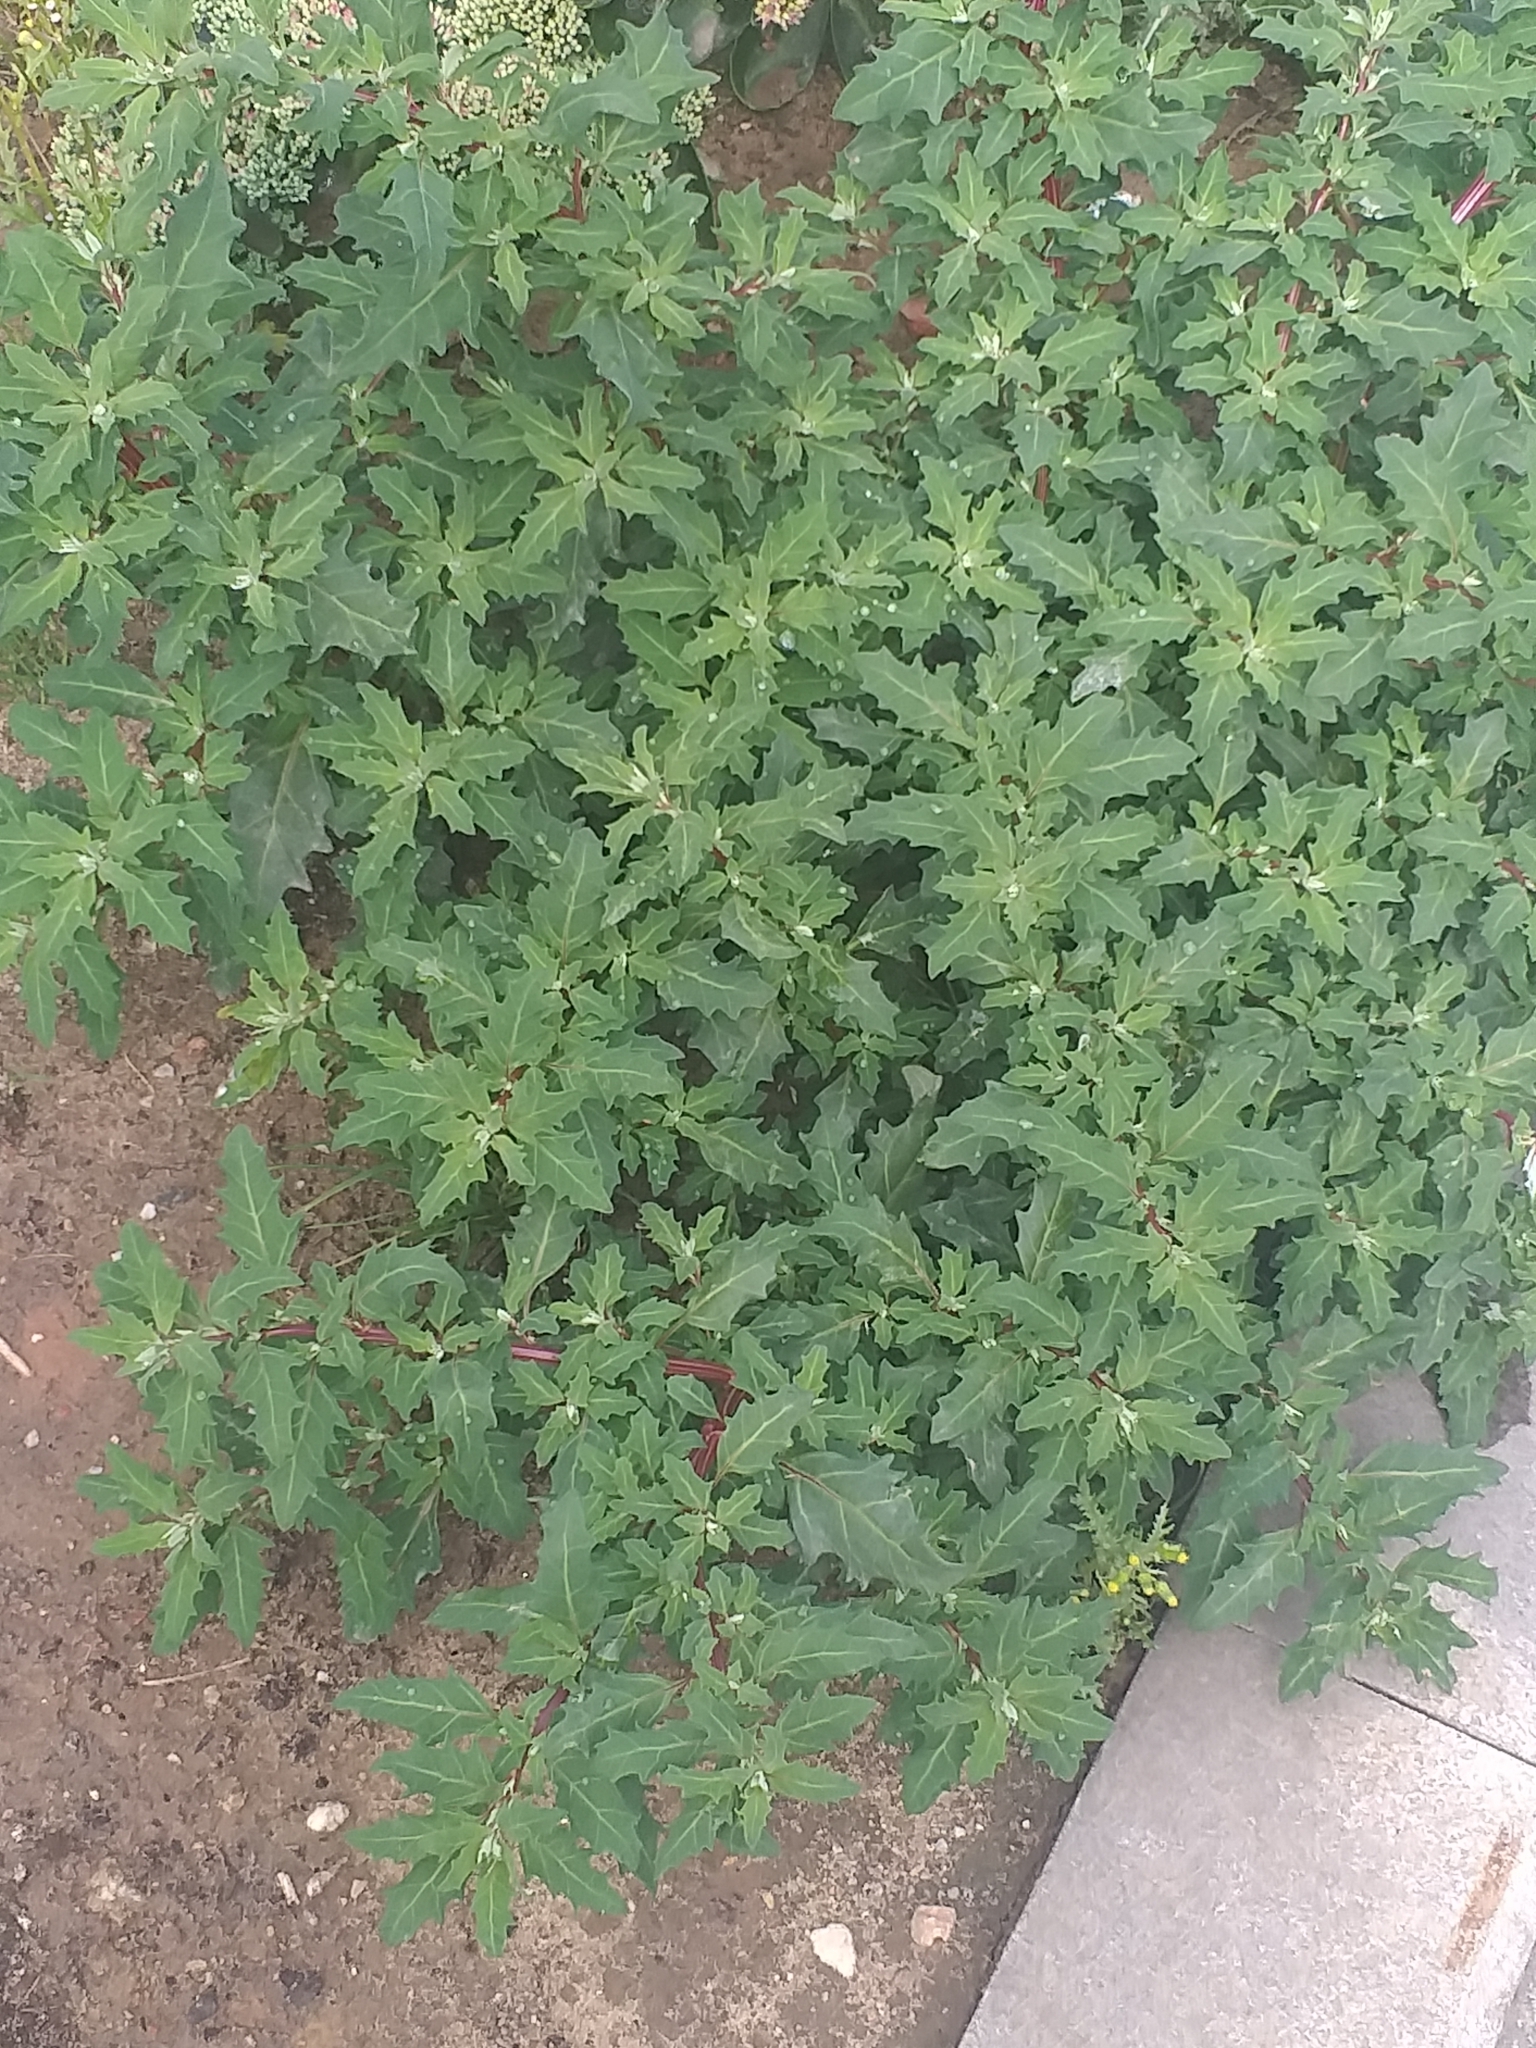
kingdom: Plantae
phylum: Tracheophyta
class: Magnoliopsida
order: Caryophyllales
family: Amaranthaceae
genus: Oxybasis
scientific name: Oxybasis glauca
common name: Glaucous goosefoot
